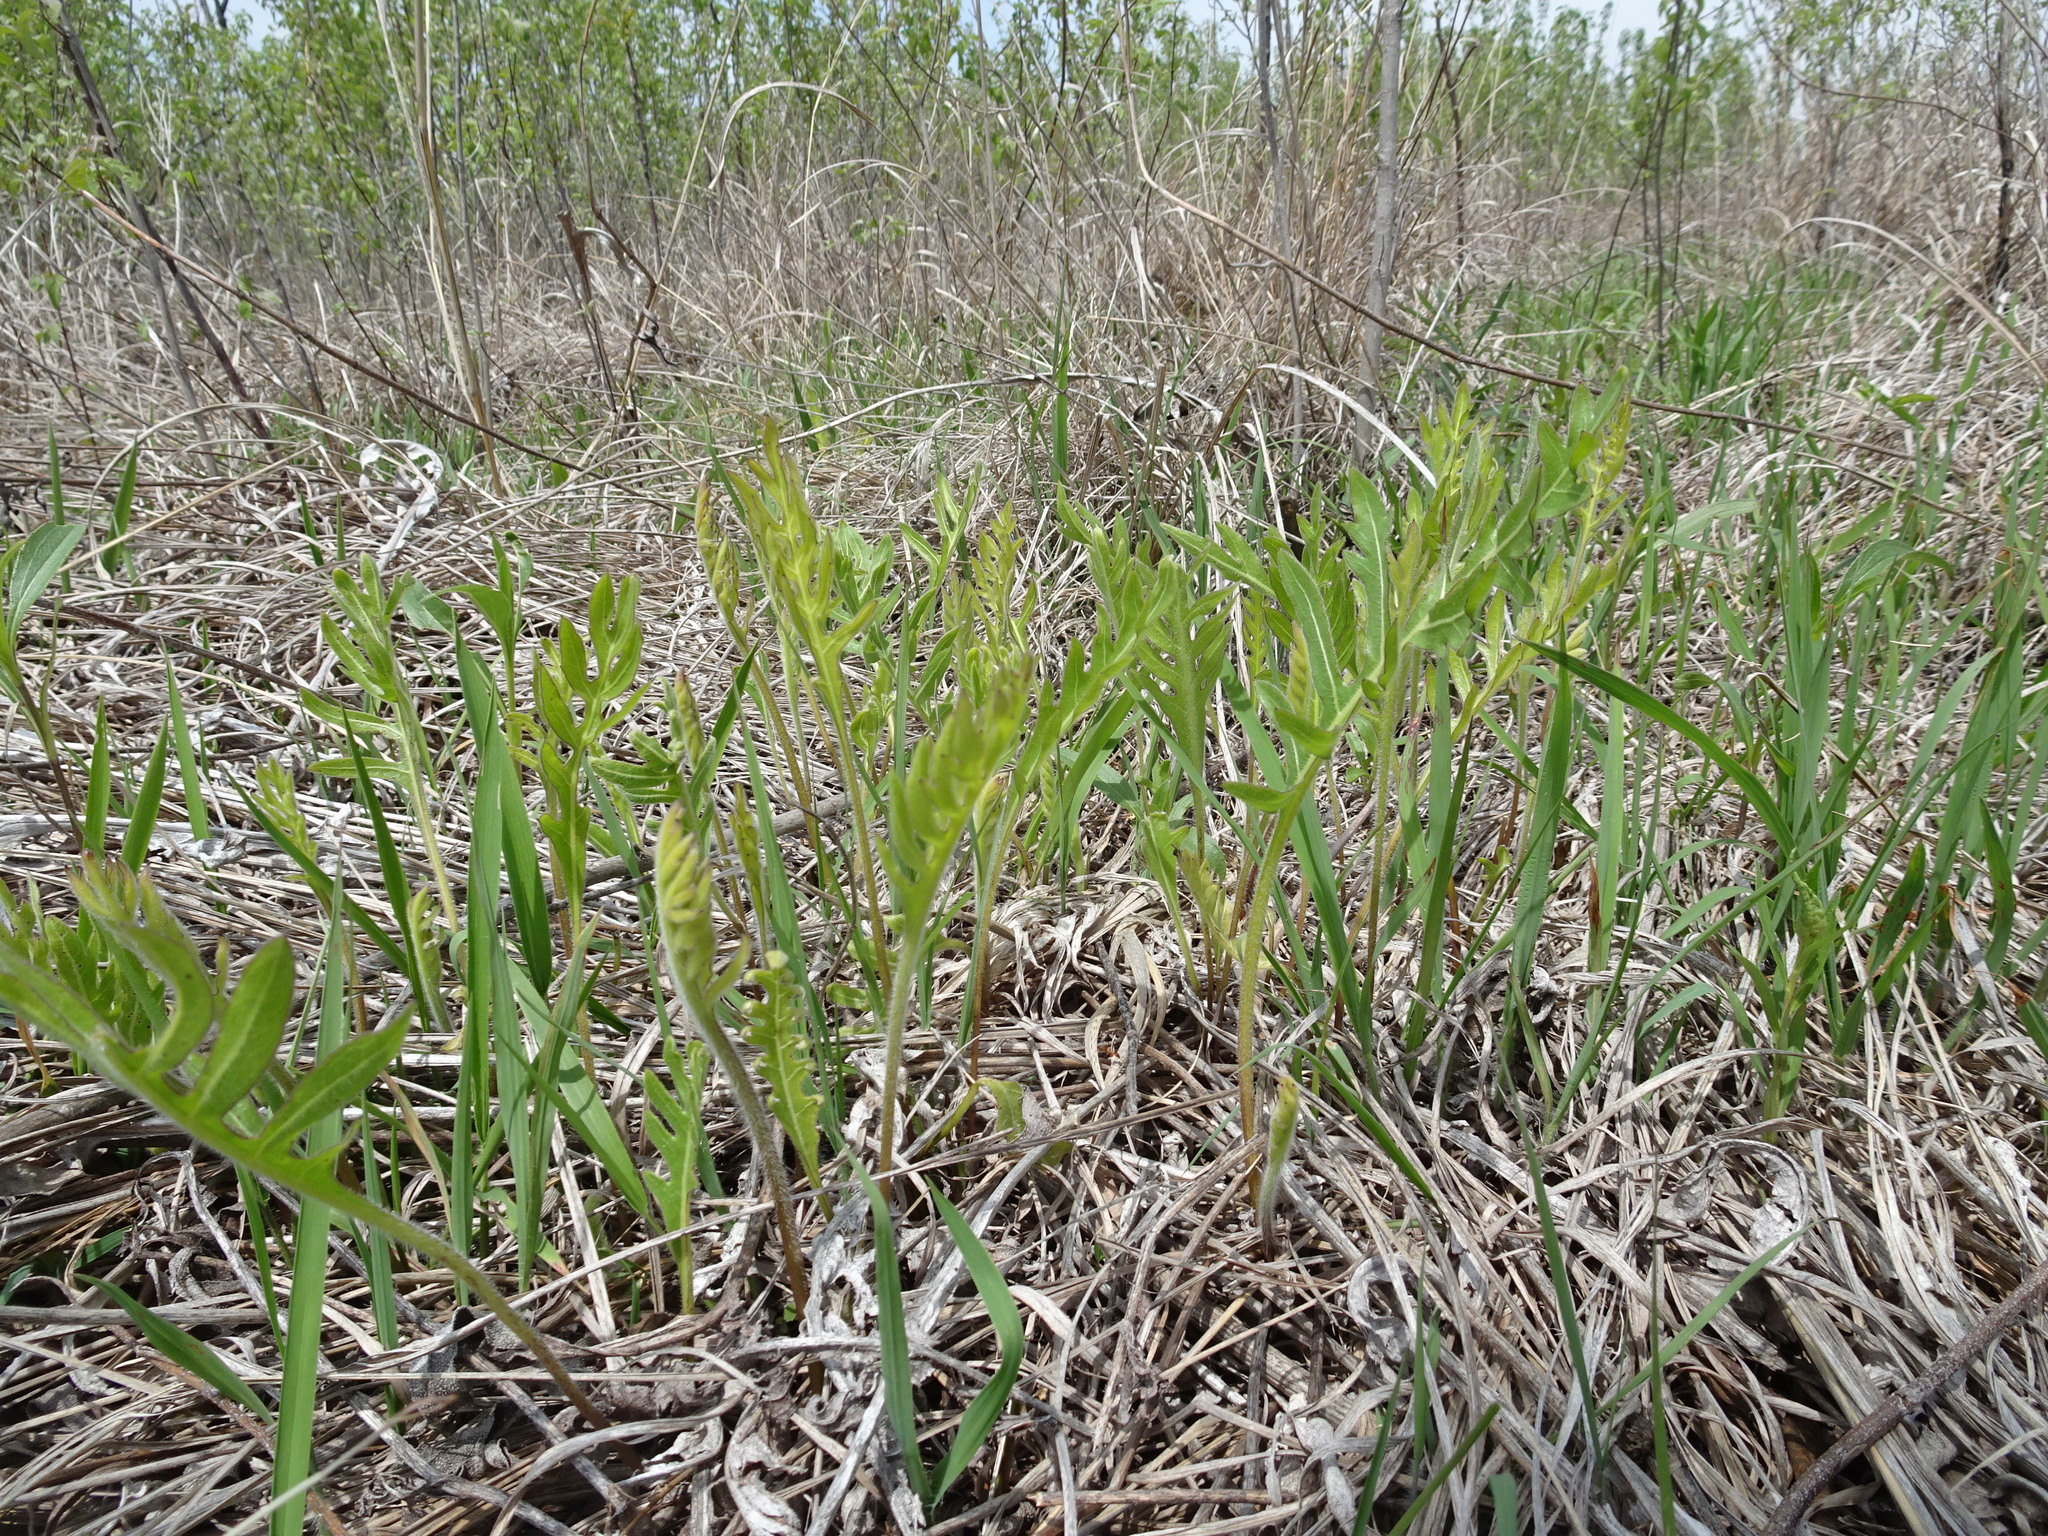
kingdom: Plantae
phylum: Tracheophyta
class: Magnoliopsida
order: Asterales
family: Asteraceae
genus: Silphium
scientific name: Silphium laciniatum
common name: Polarplant
